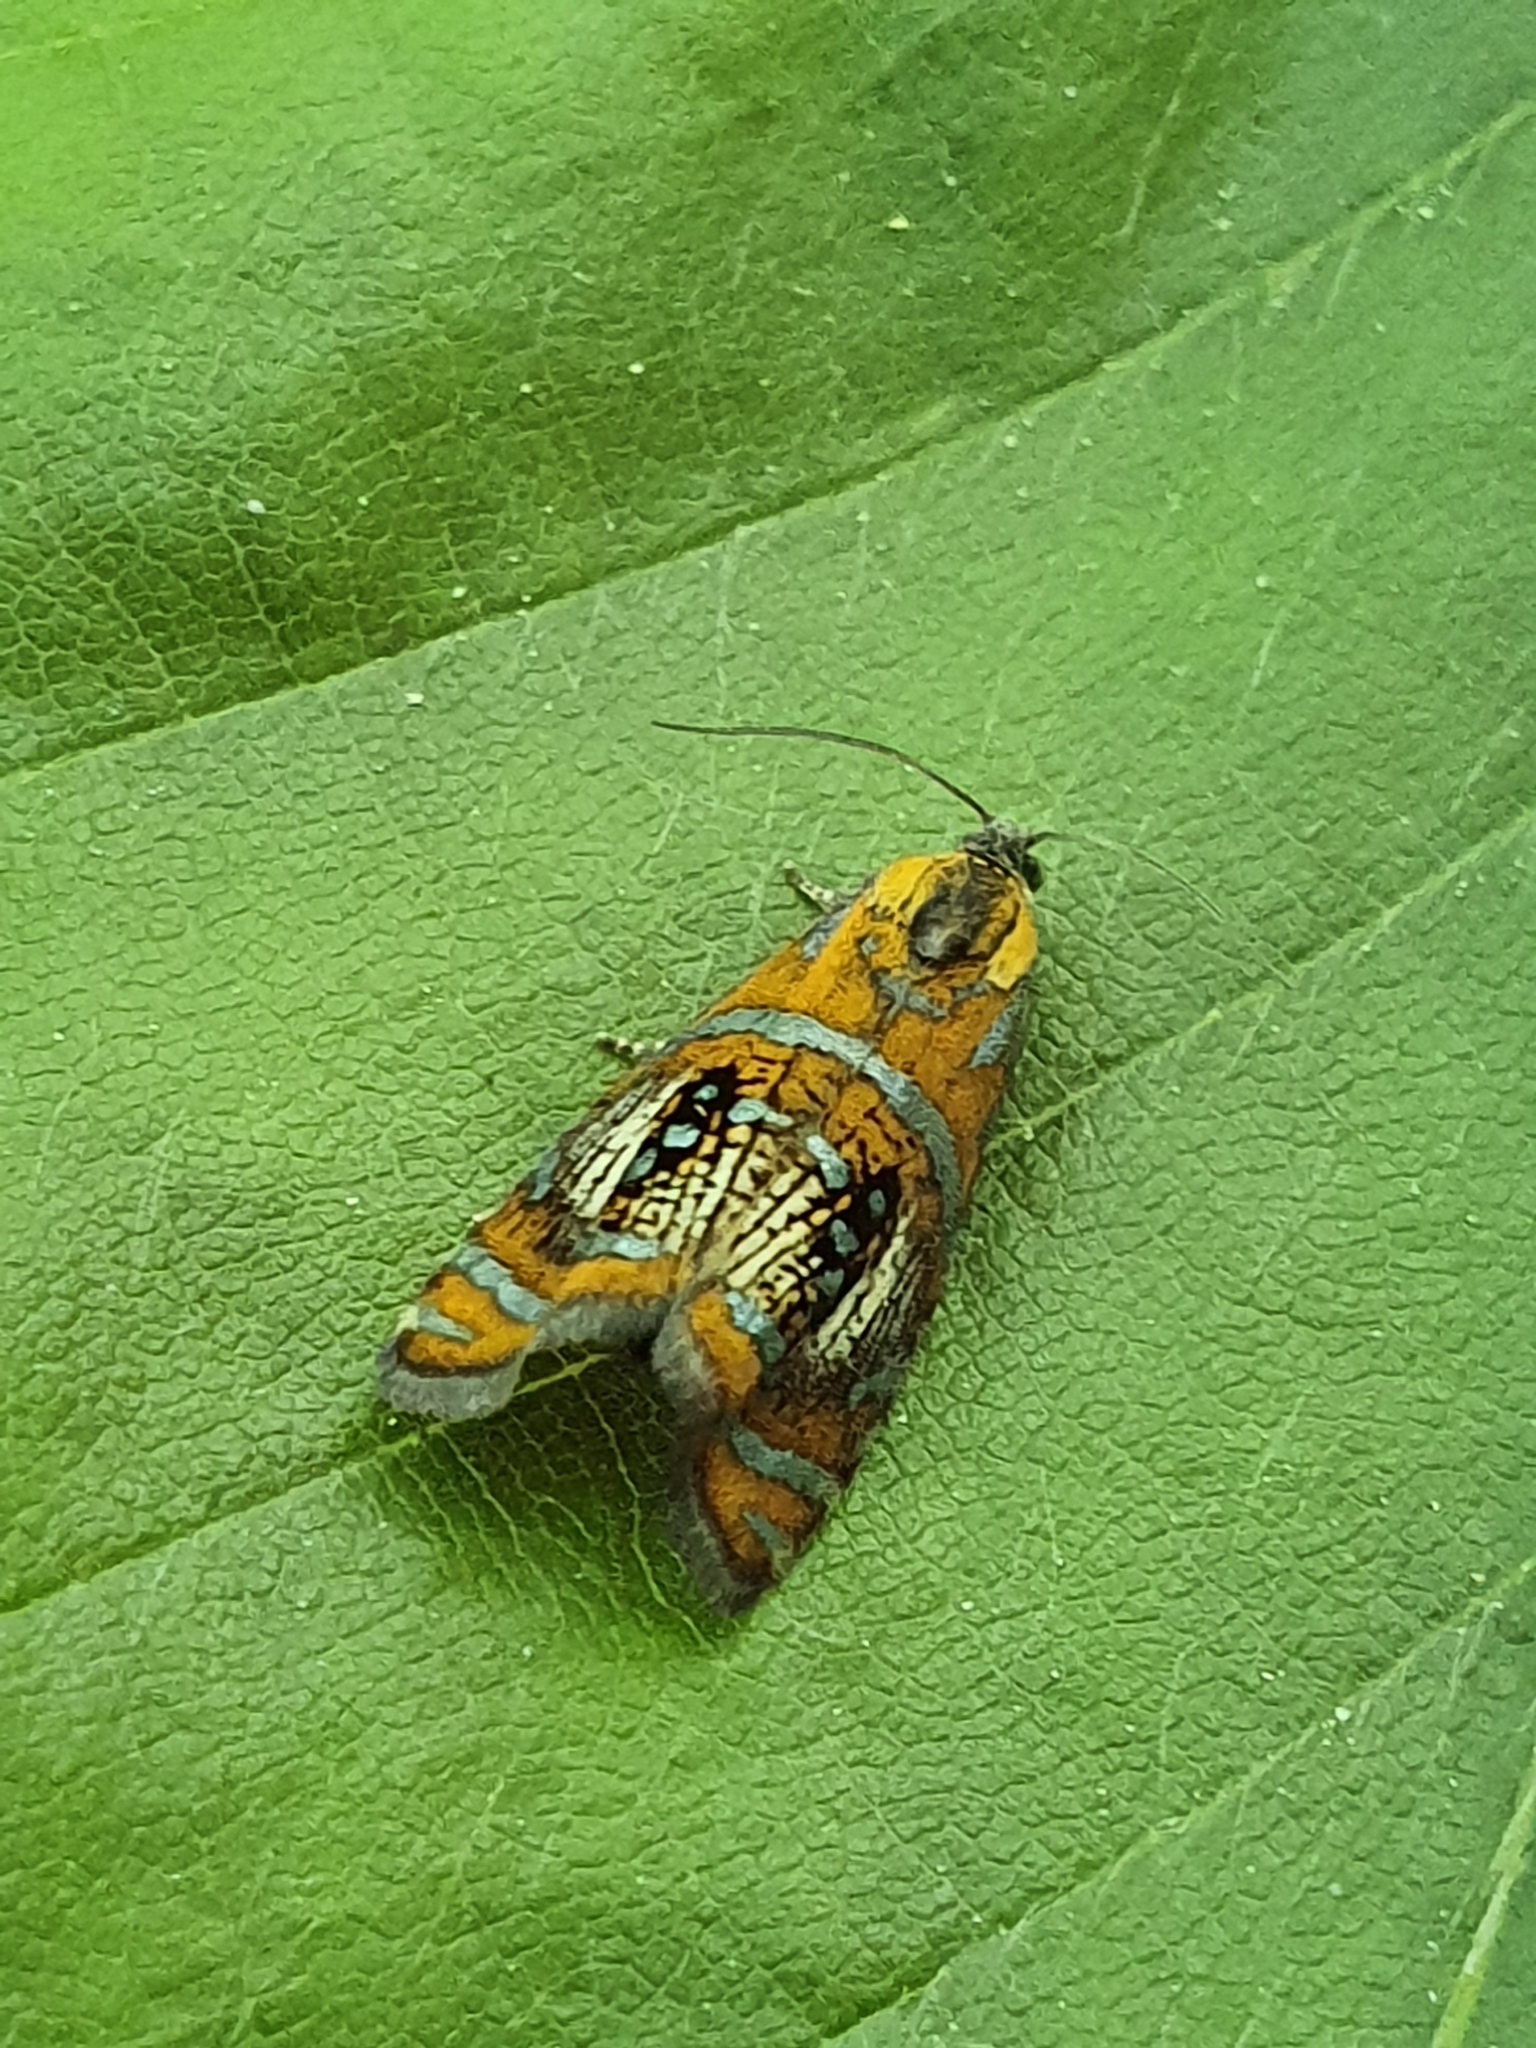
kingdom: Animalia
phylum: Arthropoda
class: Insecta
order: Lepidoptera
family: Tortricidae
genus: Olethreutes
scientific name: Olethreutes arcuella
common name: Arched marble
